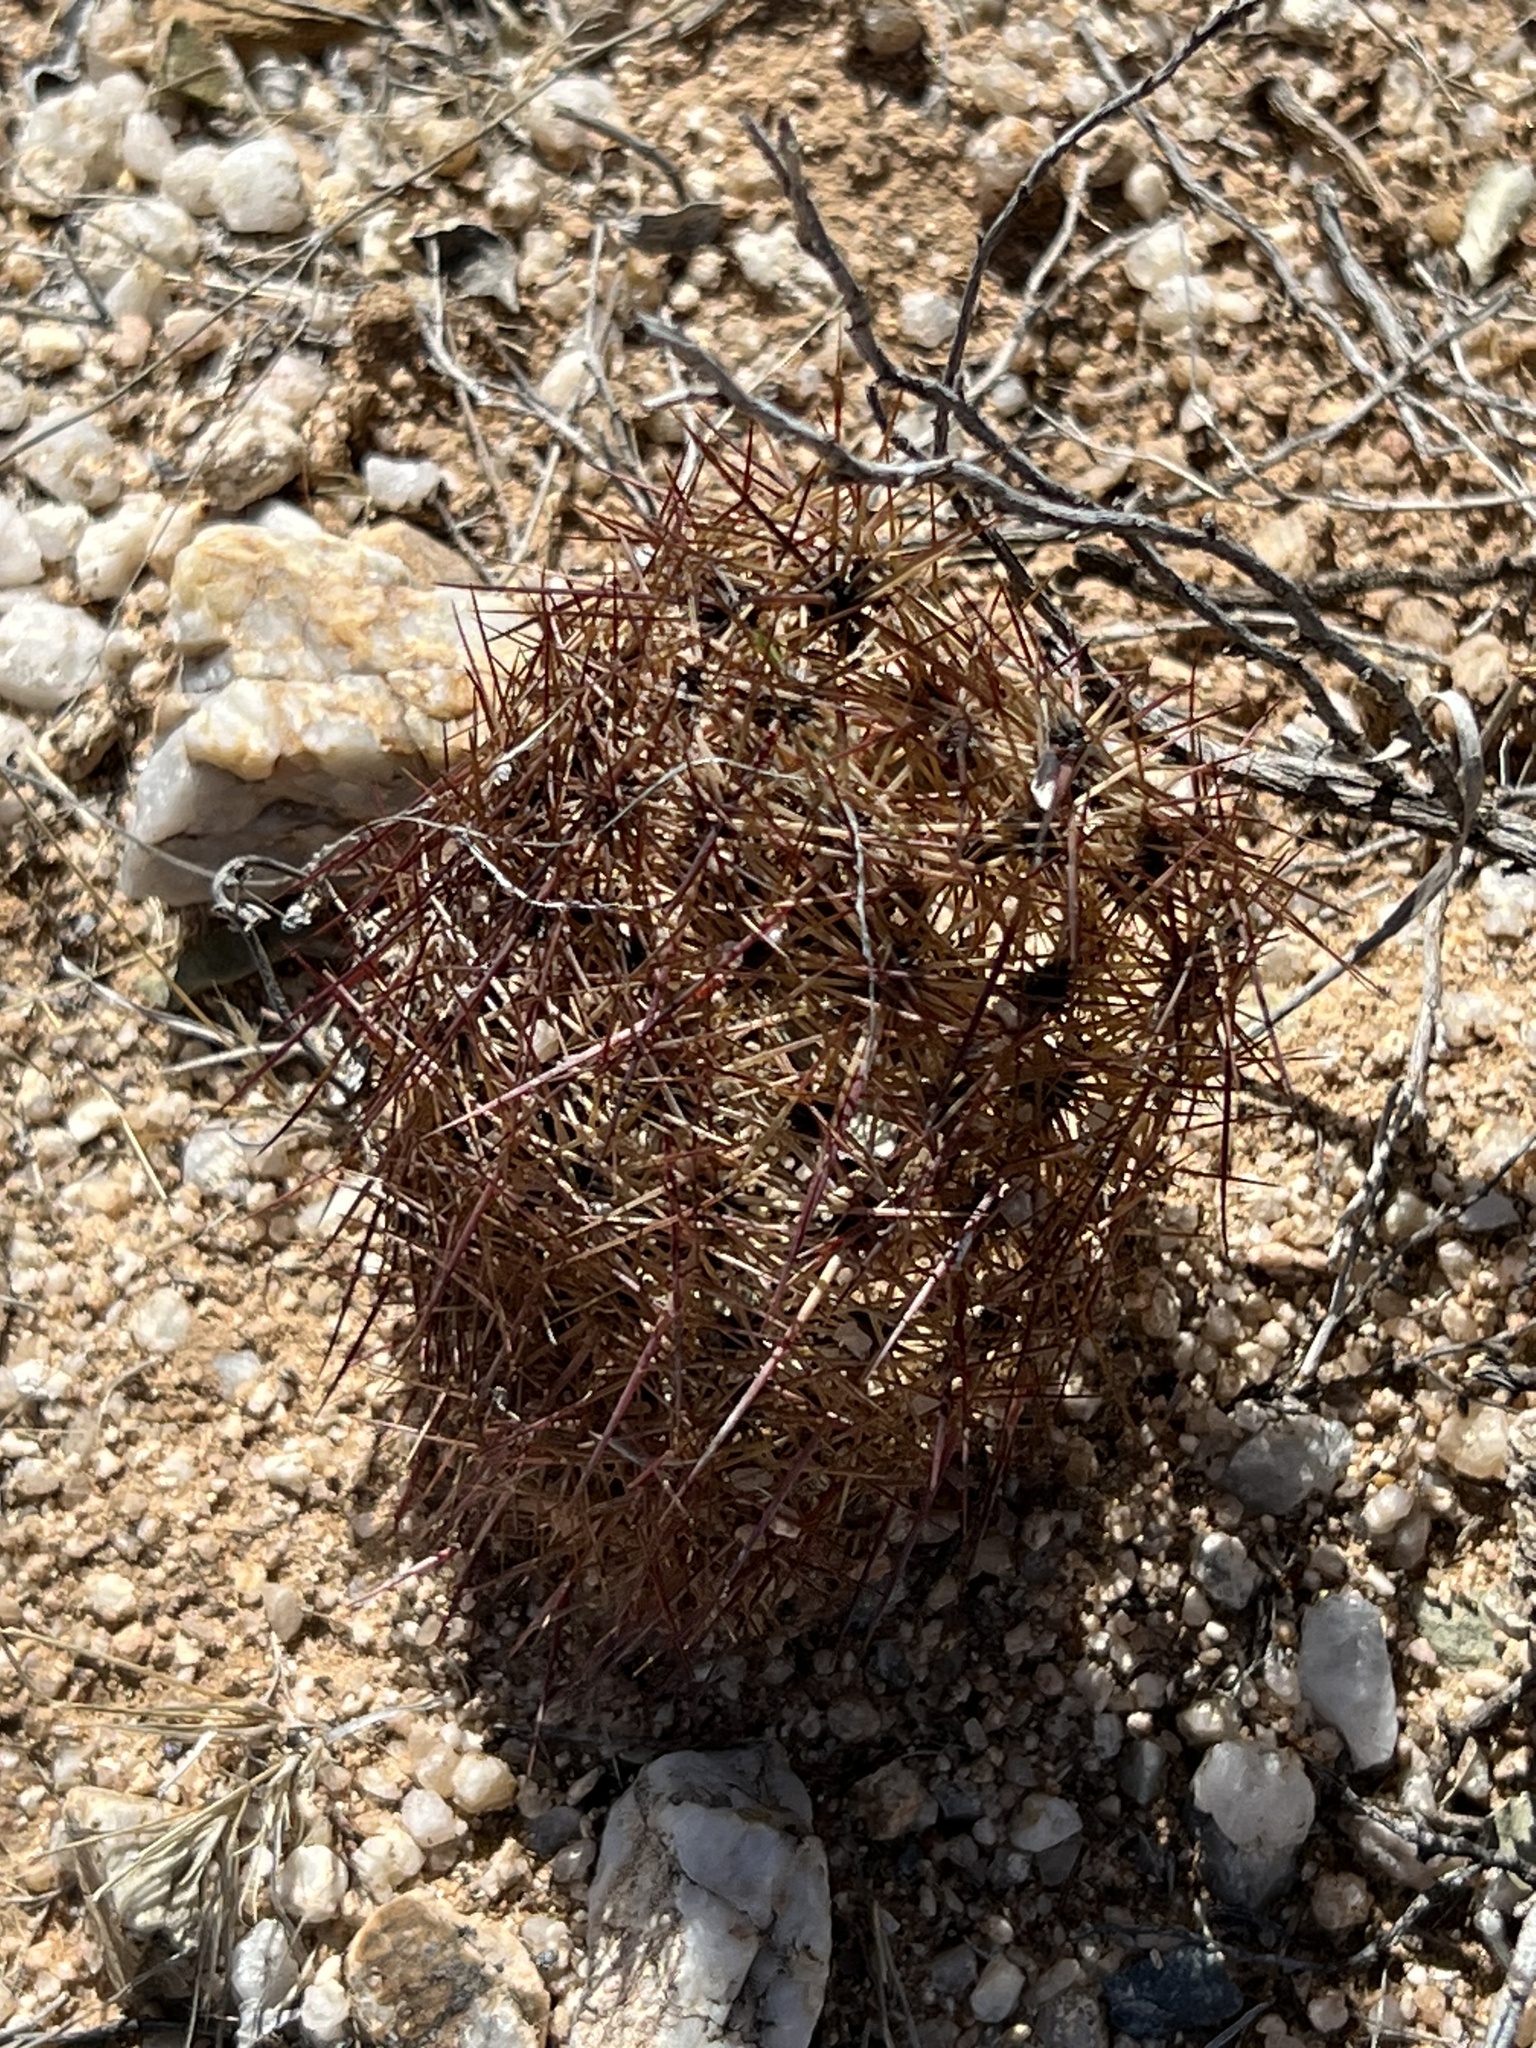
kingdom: Plantae
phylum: Tracheophyta
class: Magnoliopsida
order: Caryophyllales
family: Cactaceae
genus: Sclerocactus
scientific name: Sclerocactus johnsonii
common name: Eight-spine fishhook cactus
